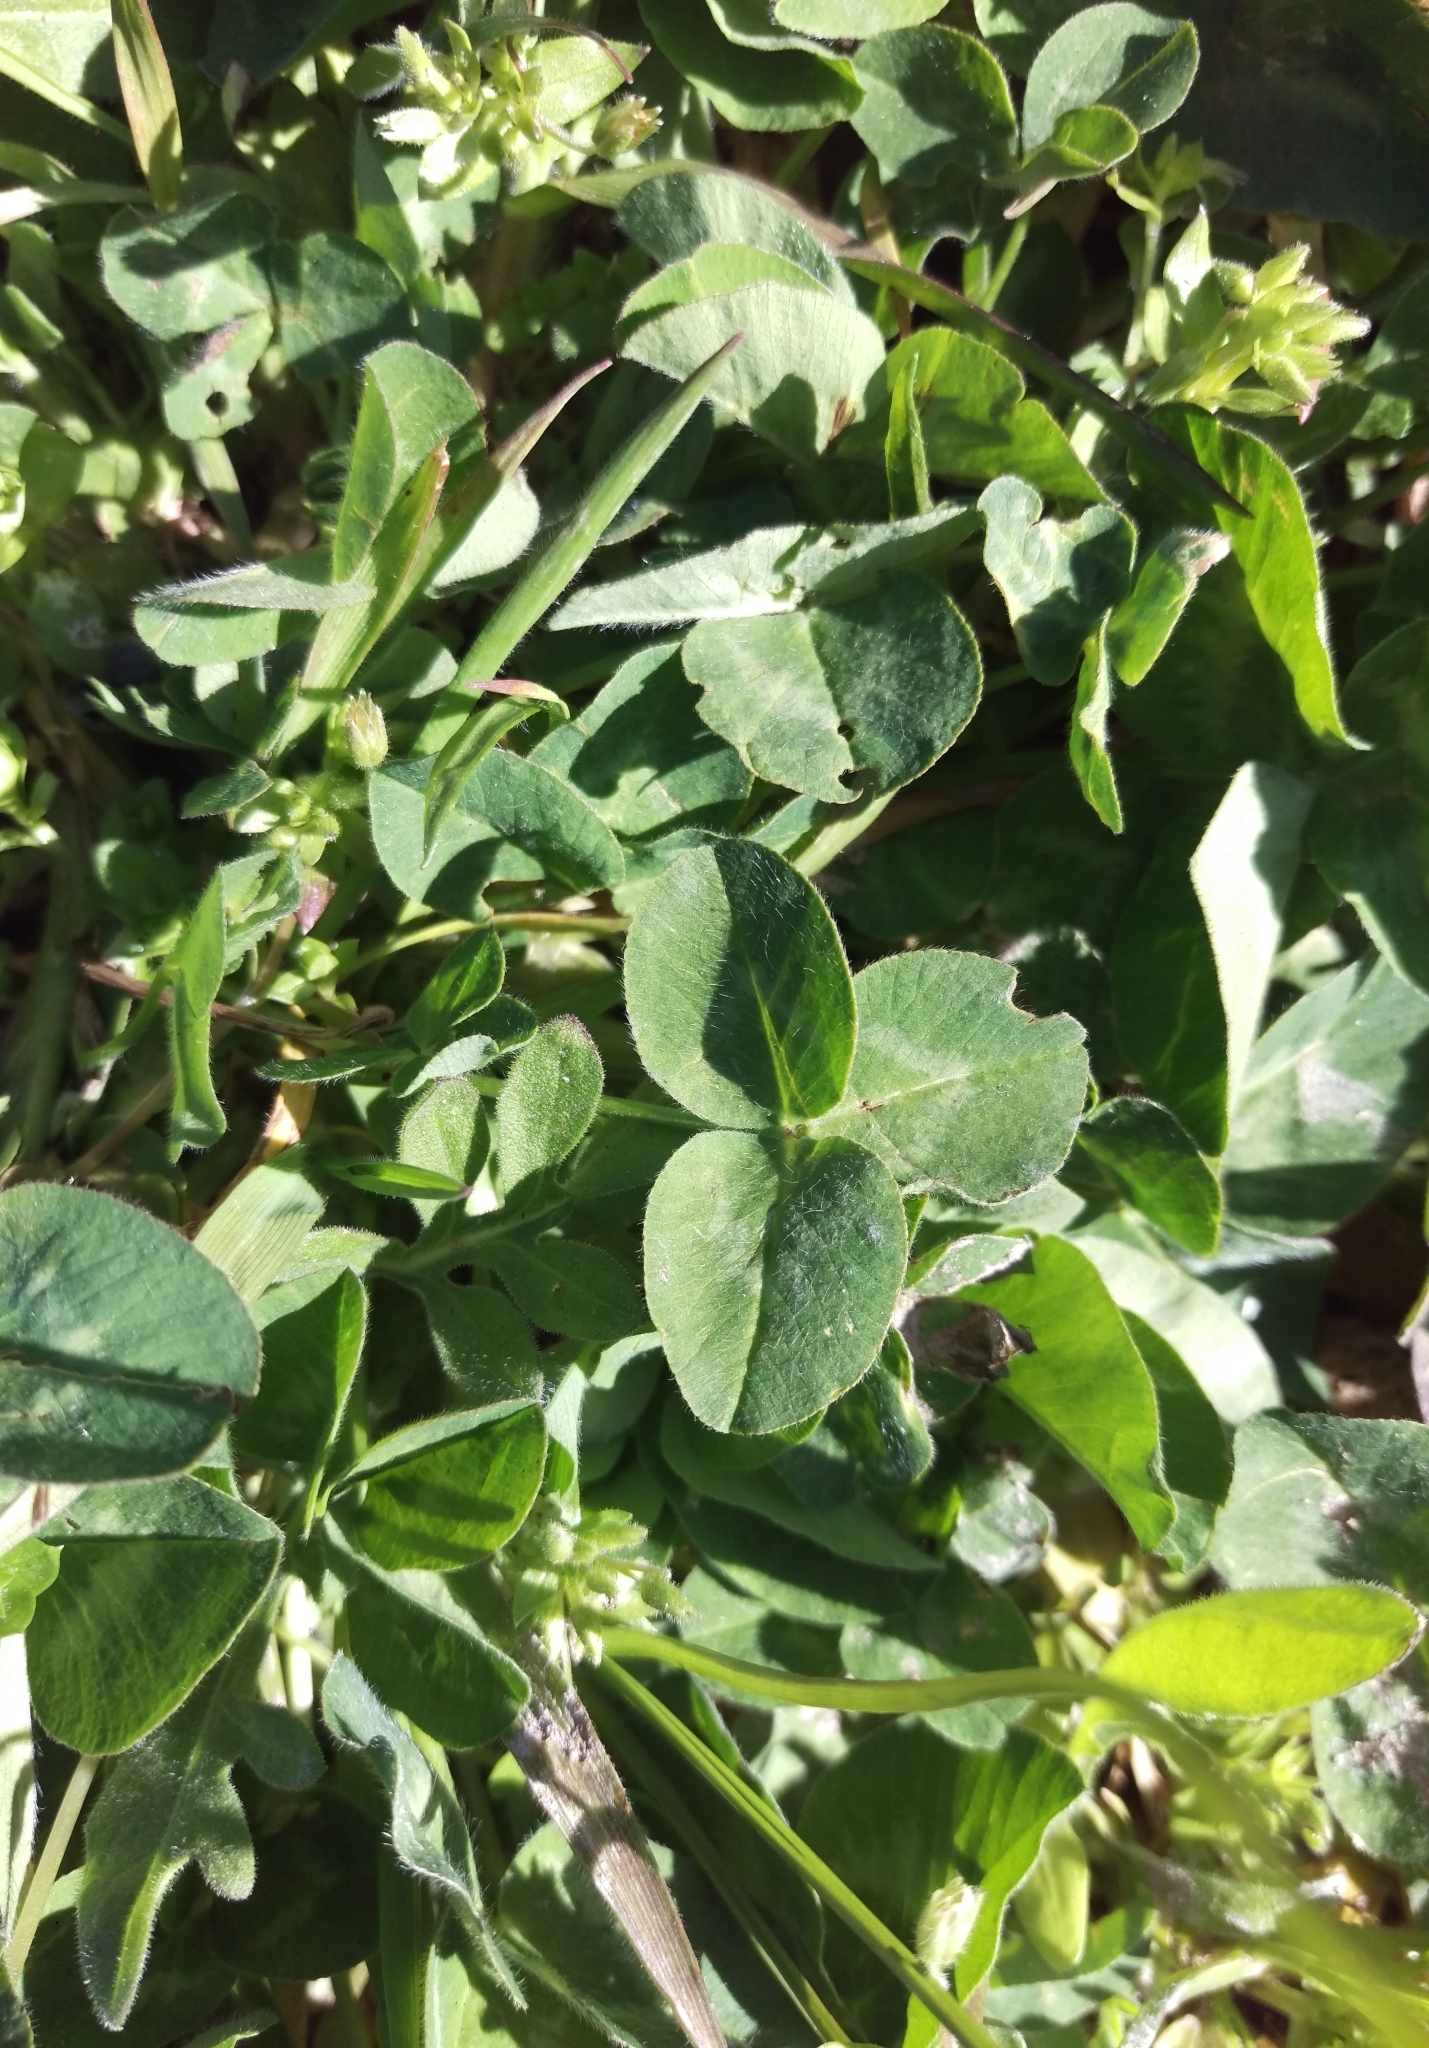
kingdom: Plantae
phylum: Tracheophyta
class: Magnoliopsida
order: Fabales
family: Fabaceae
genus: Trifolium
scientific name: Trifolium pratense
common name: Red clover
